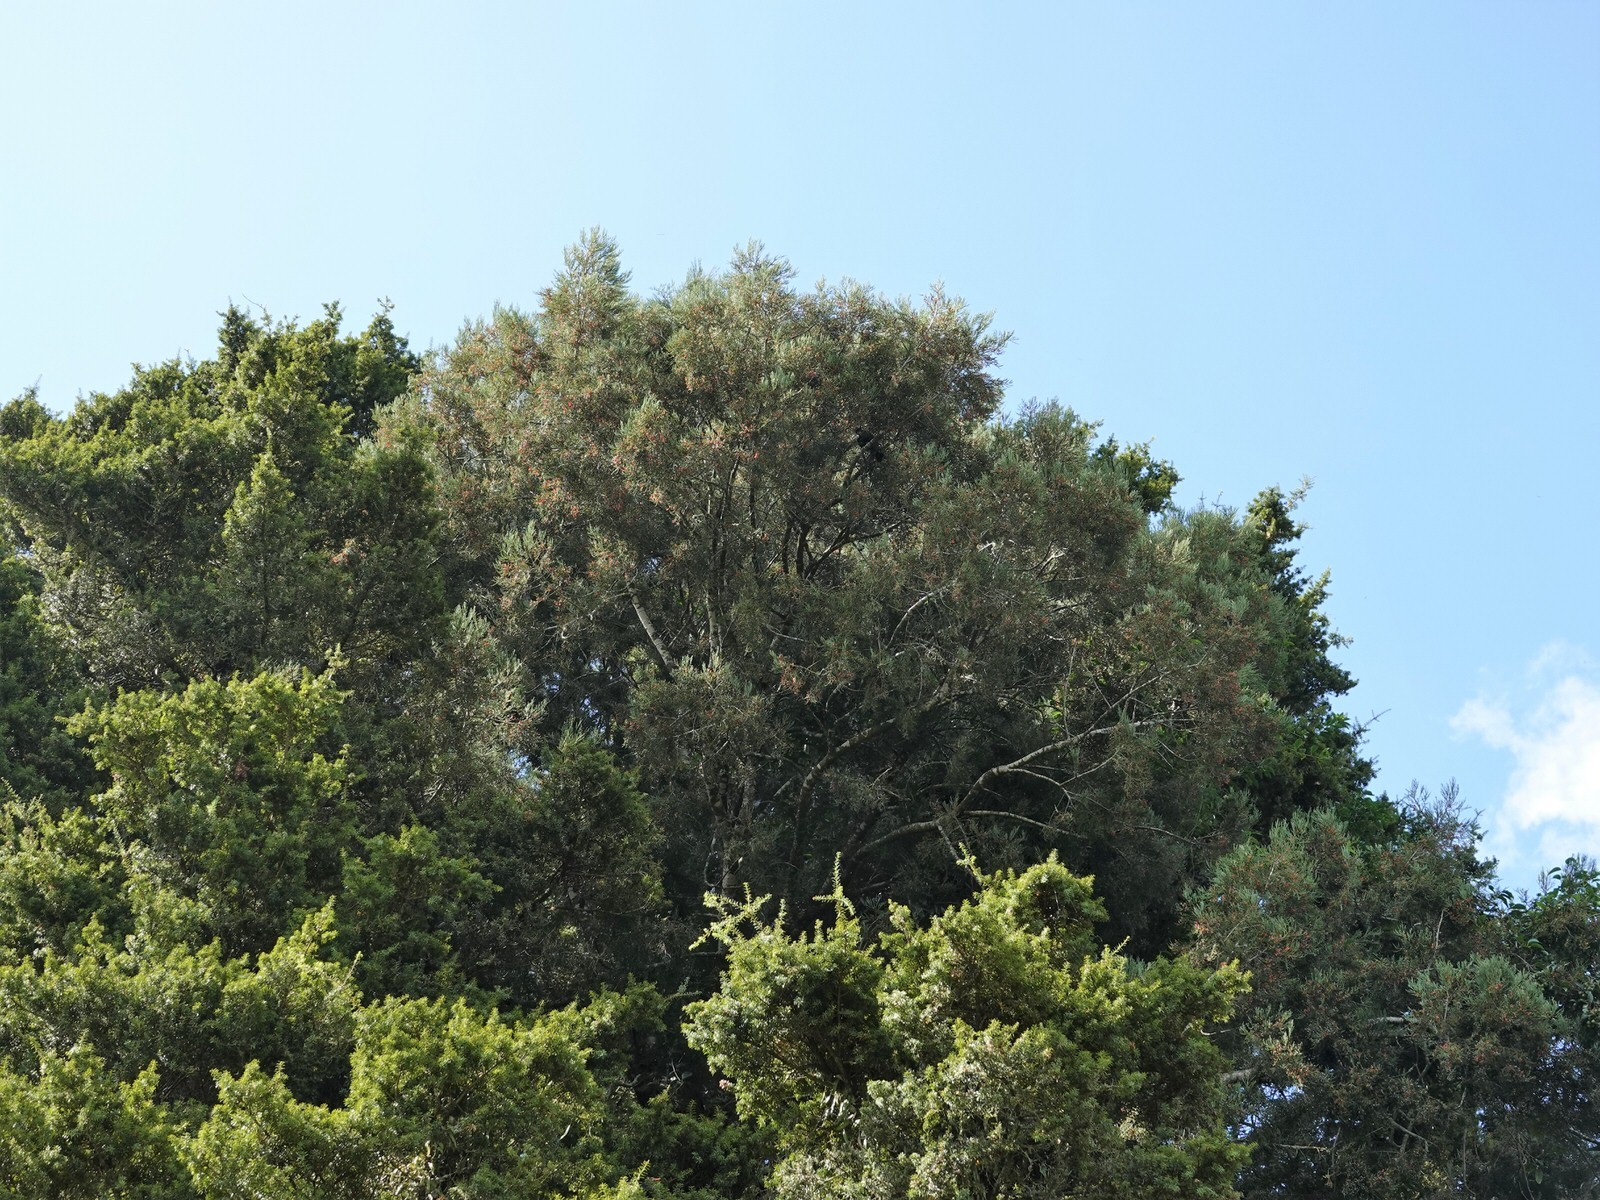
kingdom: Plantae
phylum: Tracheophyta
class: Pinopsida
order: Pinales
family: Podocarpaceae
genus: Dacrycarpus
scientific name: Dacrycarpus dacrydioides
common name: White pine
